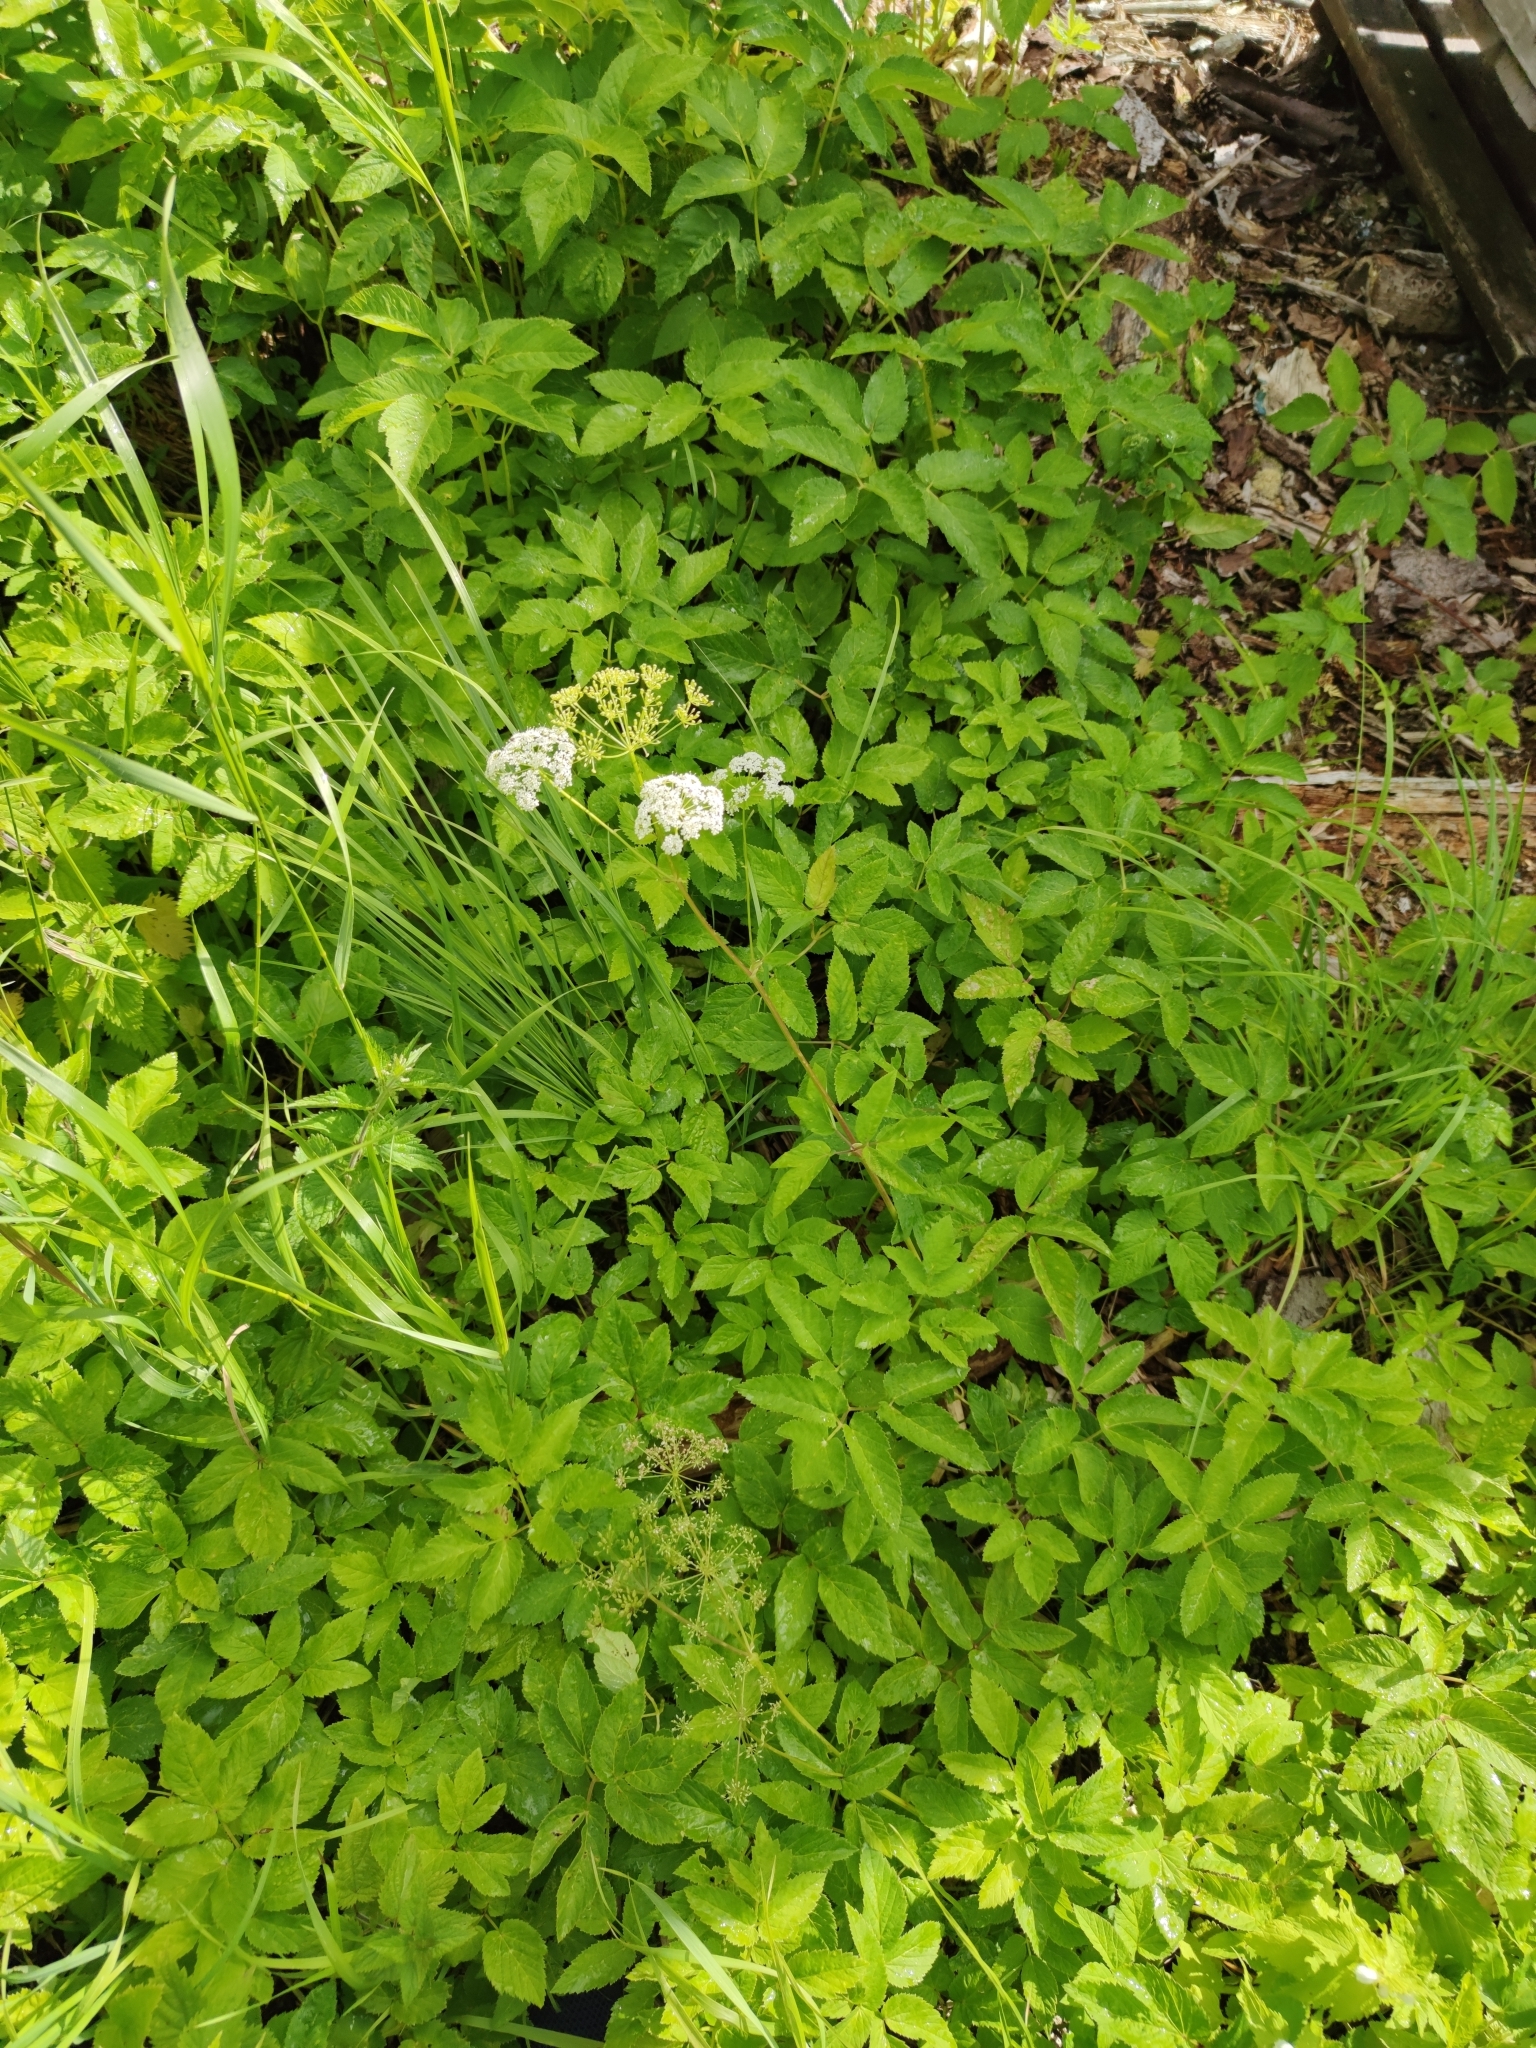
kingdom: Plantae
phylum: Tracheophyta
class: Magnoliopsida
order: Apiales
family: Apiaceae
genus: Aegopodium
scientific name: Aegopodium podagraria
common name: Ground-elder
